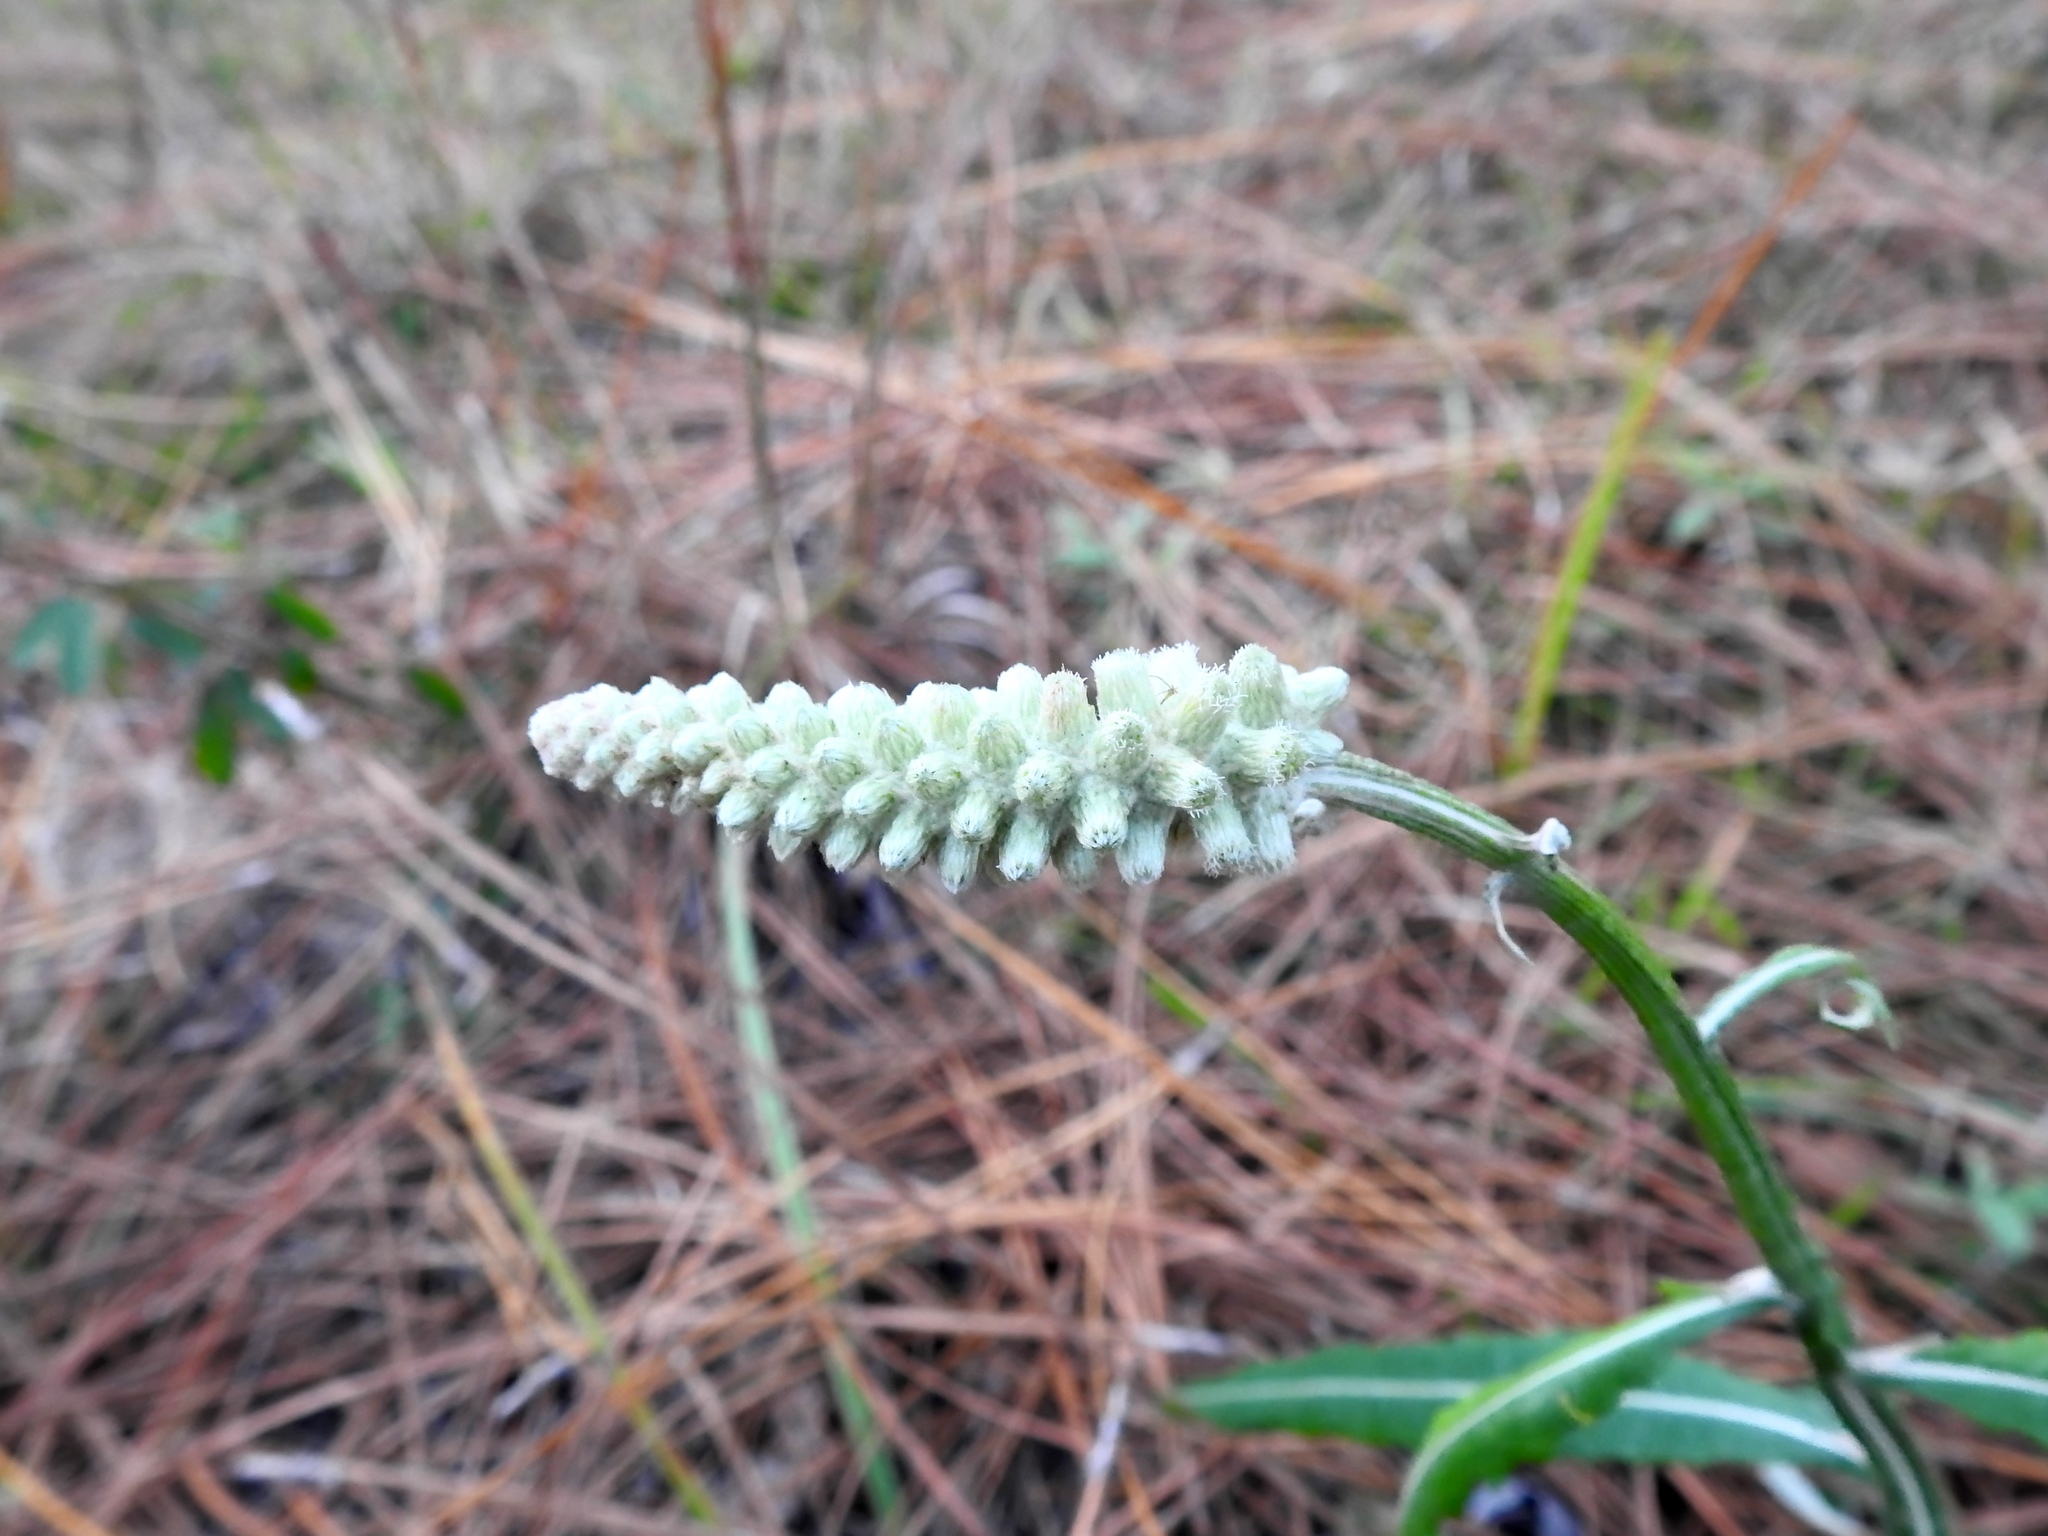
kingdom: Plantae
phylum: Tracheophyta
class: Magnoliopsida
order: Asterales
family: Asteraceae
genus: Pterocaulon
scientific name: Pterocaulon pycnostachyum
